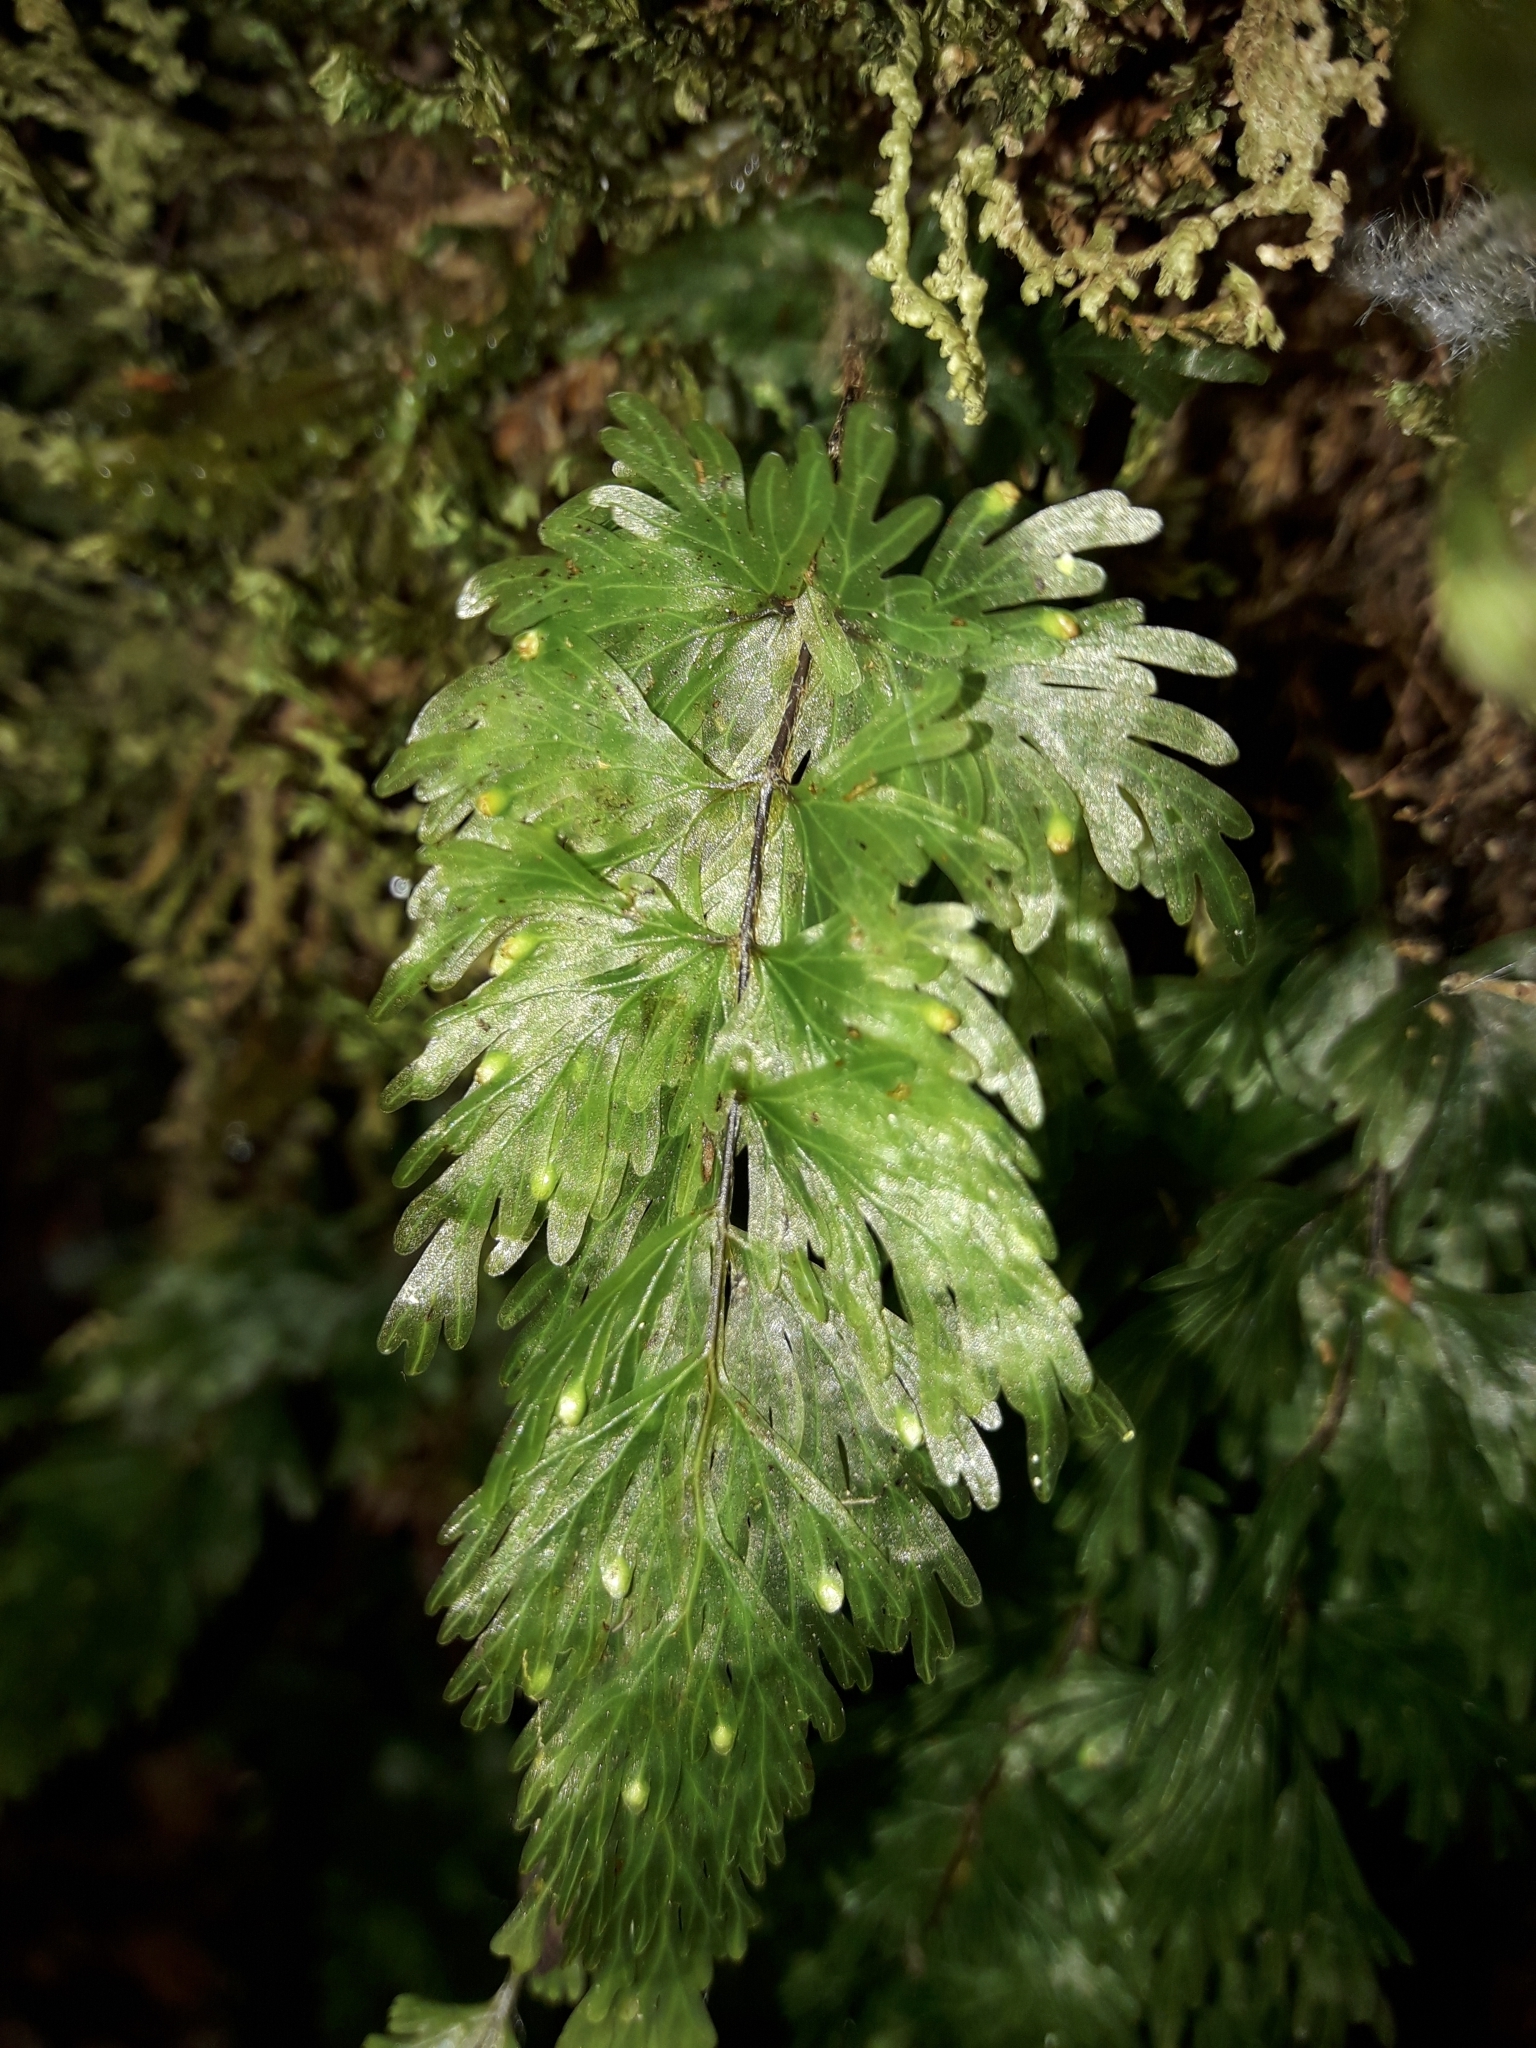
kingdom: Plantae
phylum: Tracheophyta
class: Polypodiopsida
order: Hymenophyllales
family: Hymenophyllaceae
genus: Hymenophyllum
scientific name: Hymenophyllum flabellatum
